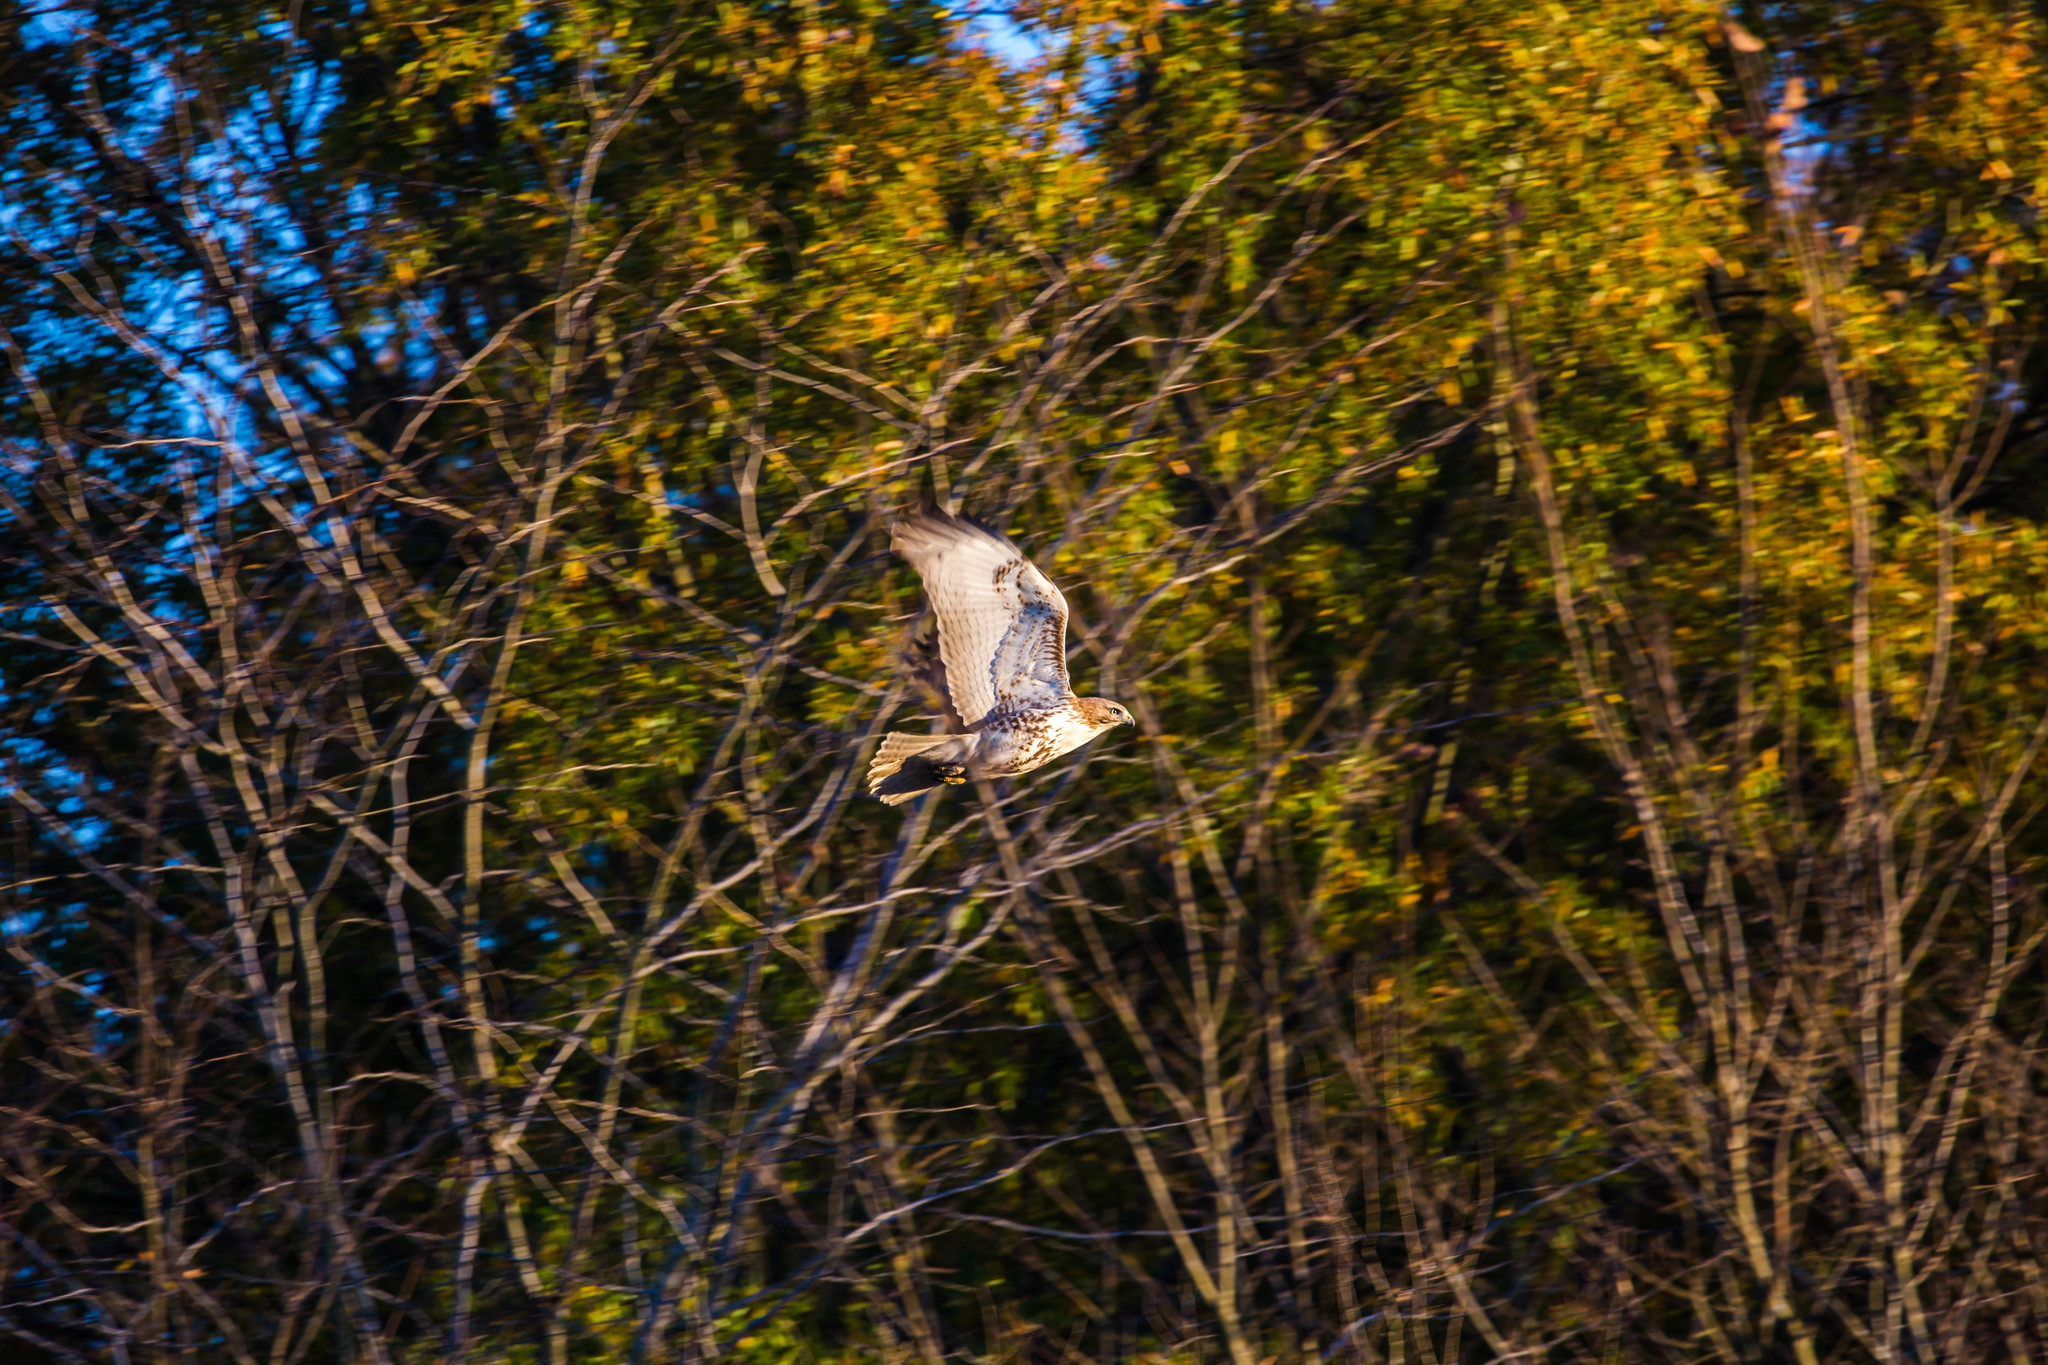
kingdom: Animalia
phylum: Chordata
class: Aves
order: Accipitriformes
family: Accipitridae
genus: Buteo
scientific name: Buteo jamaicensis
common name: Red-tailed hawk
